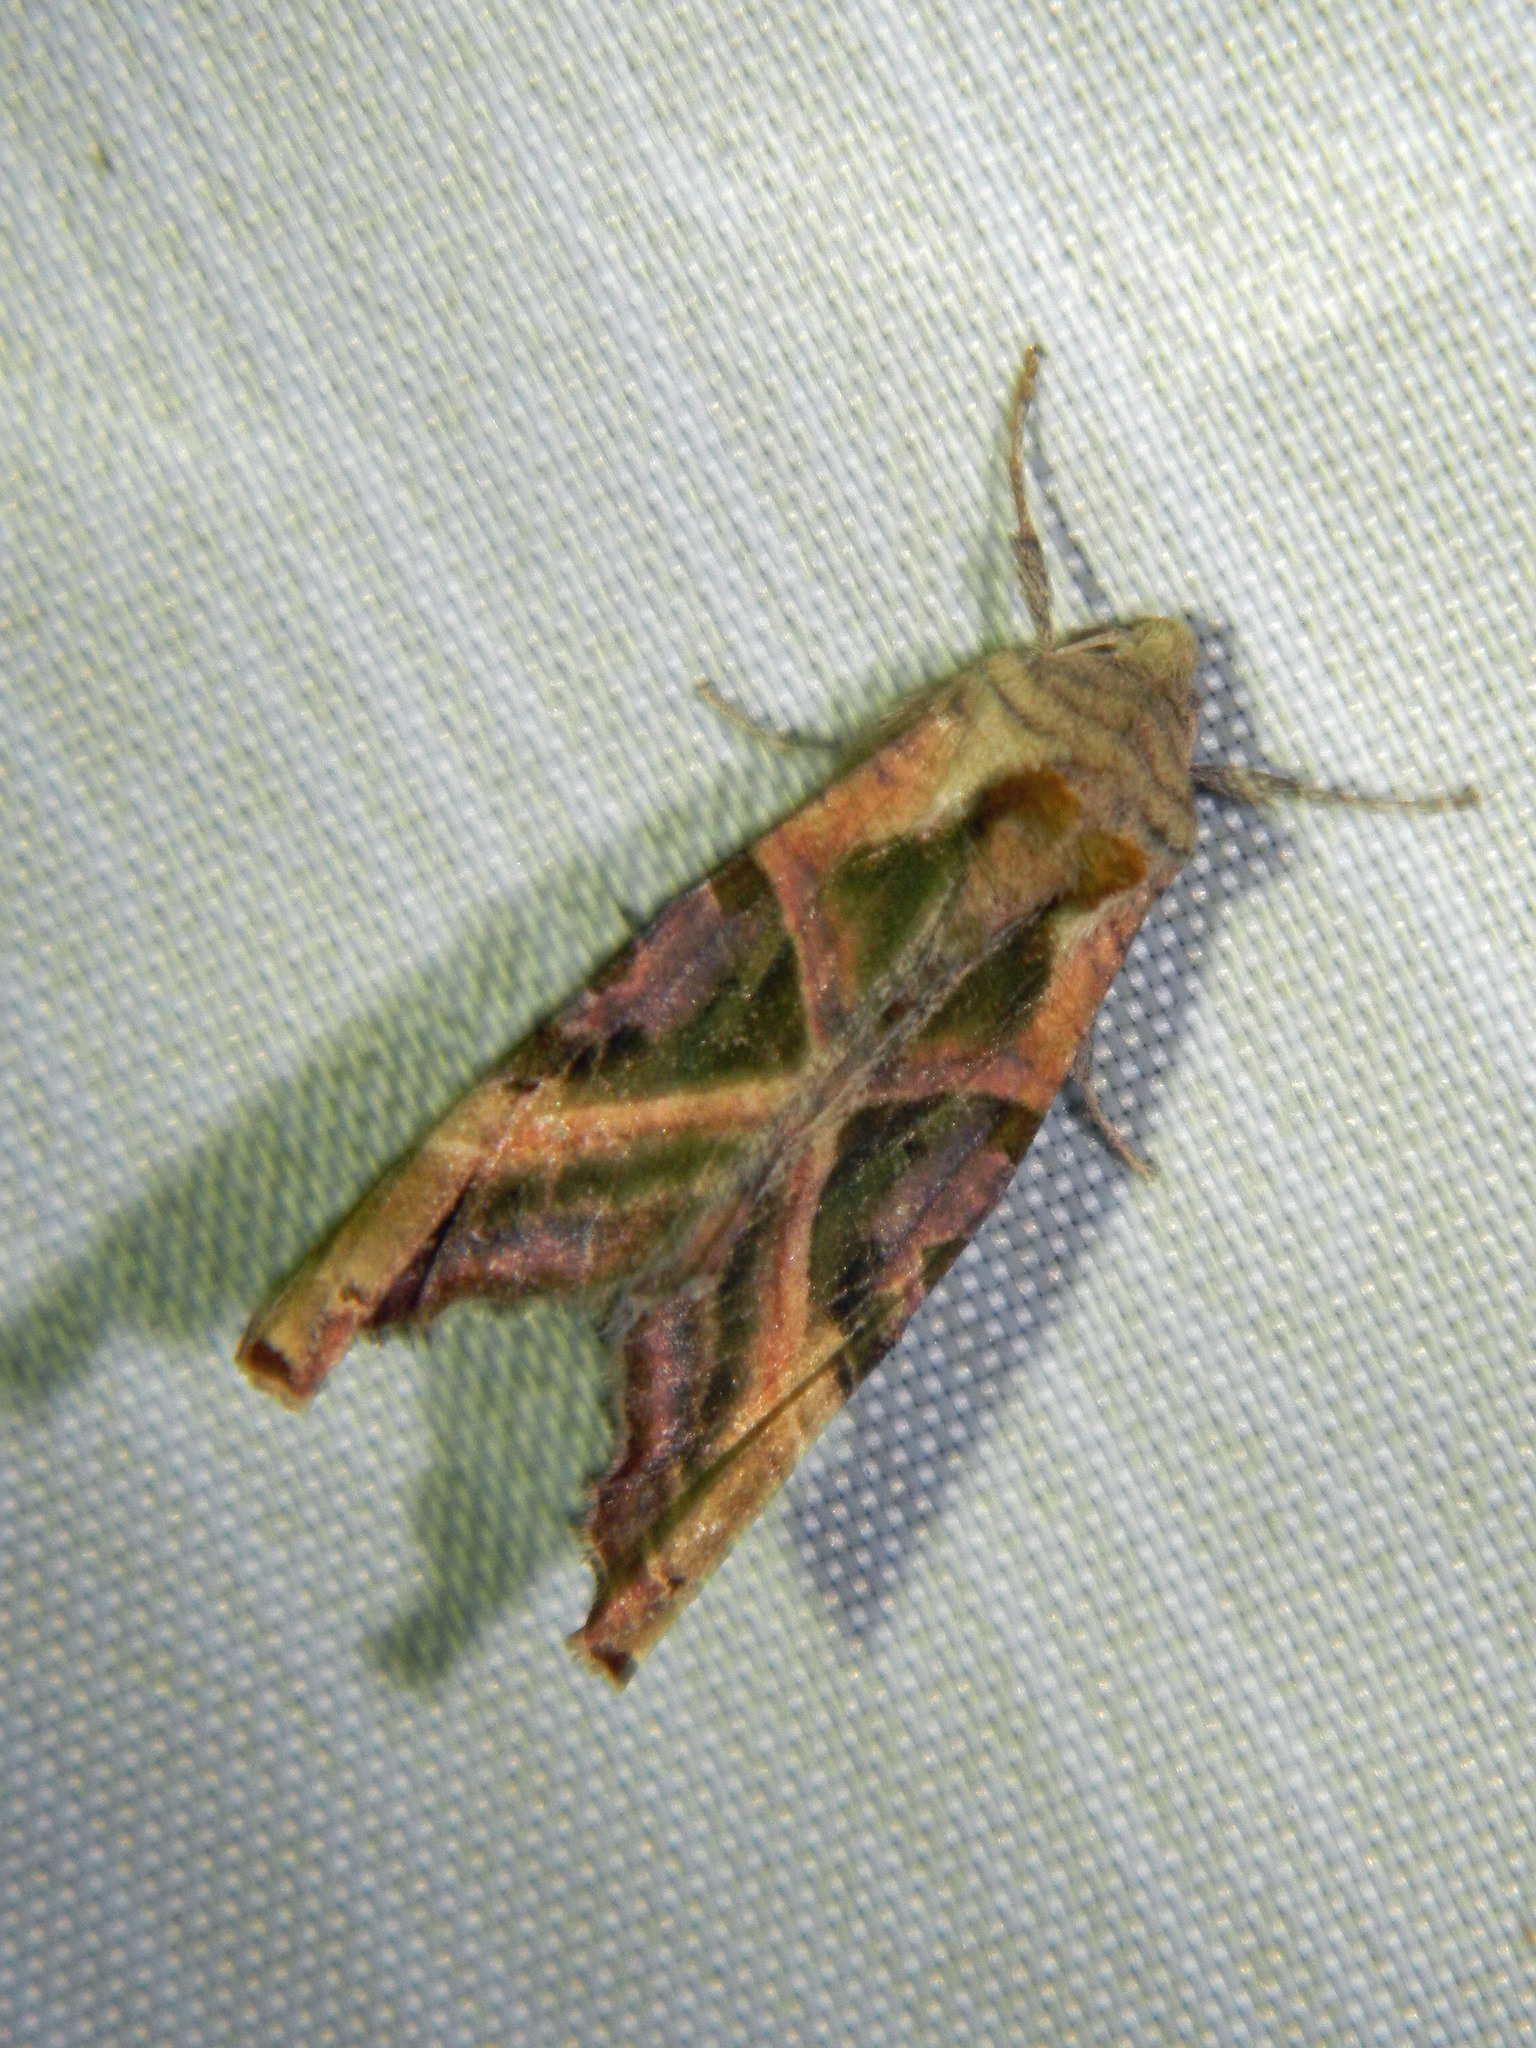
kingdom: Animalia
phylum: Arthropoda
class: Insecta
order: Lepidoptera
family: Noctuidae
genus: Phlogophora
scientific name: Phlogophora iris
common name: Olive angle shades
